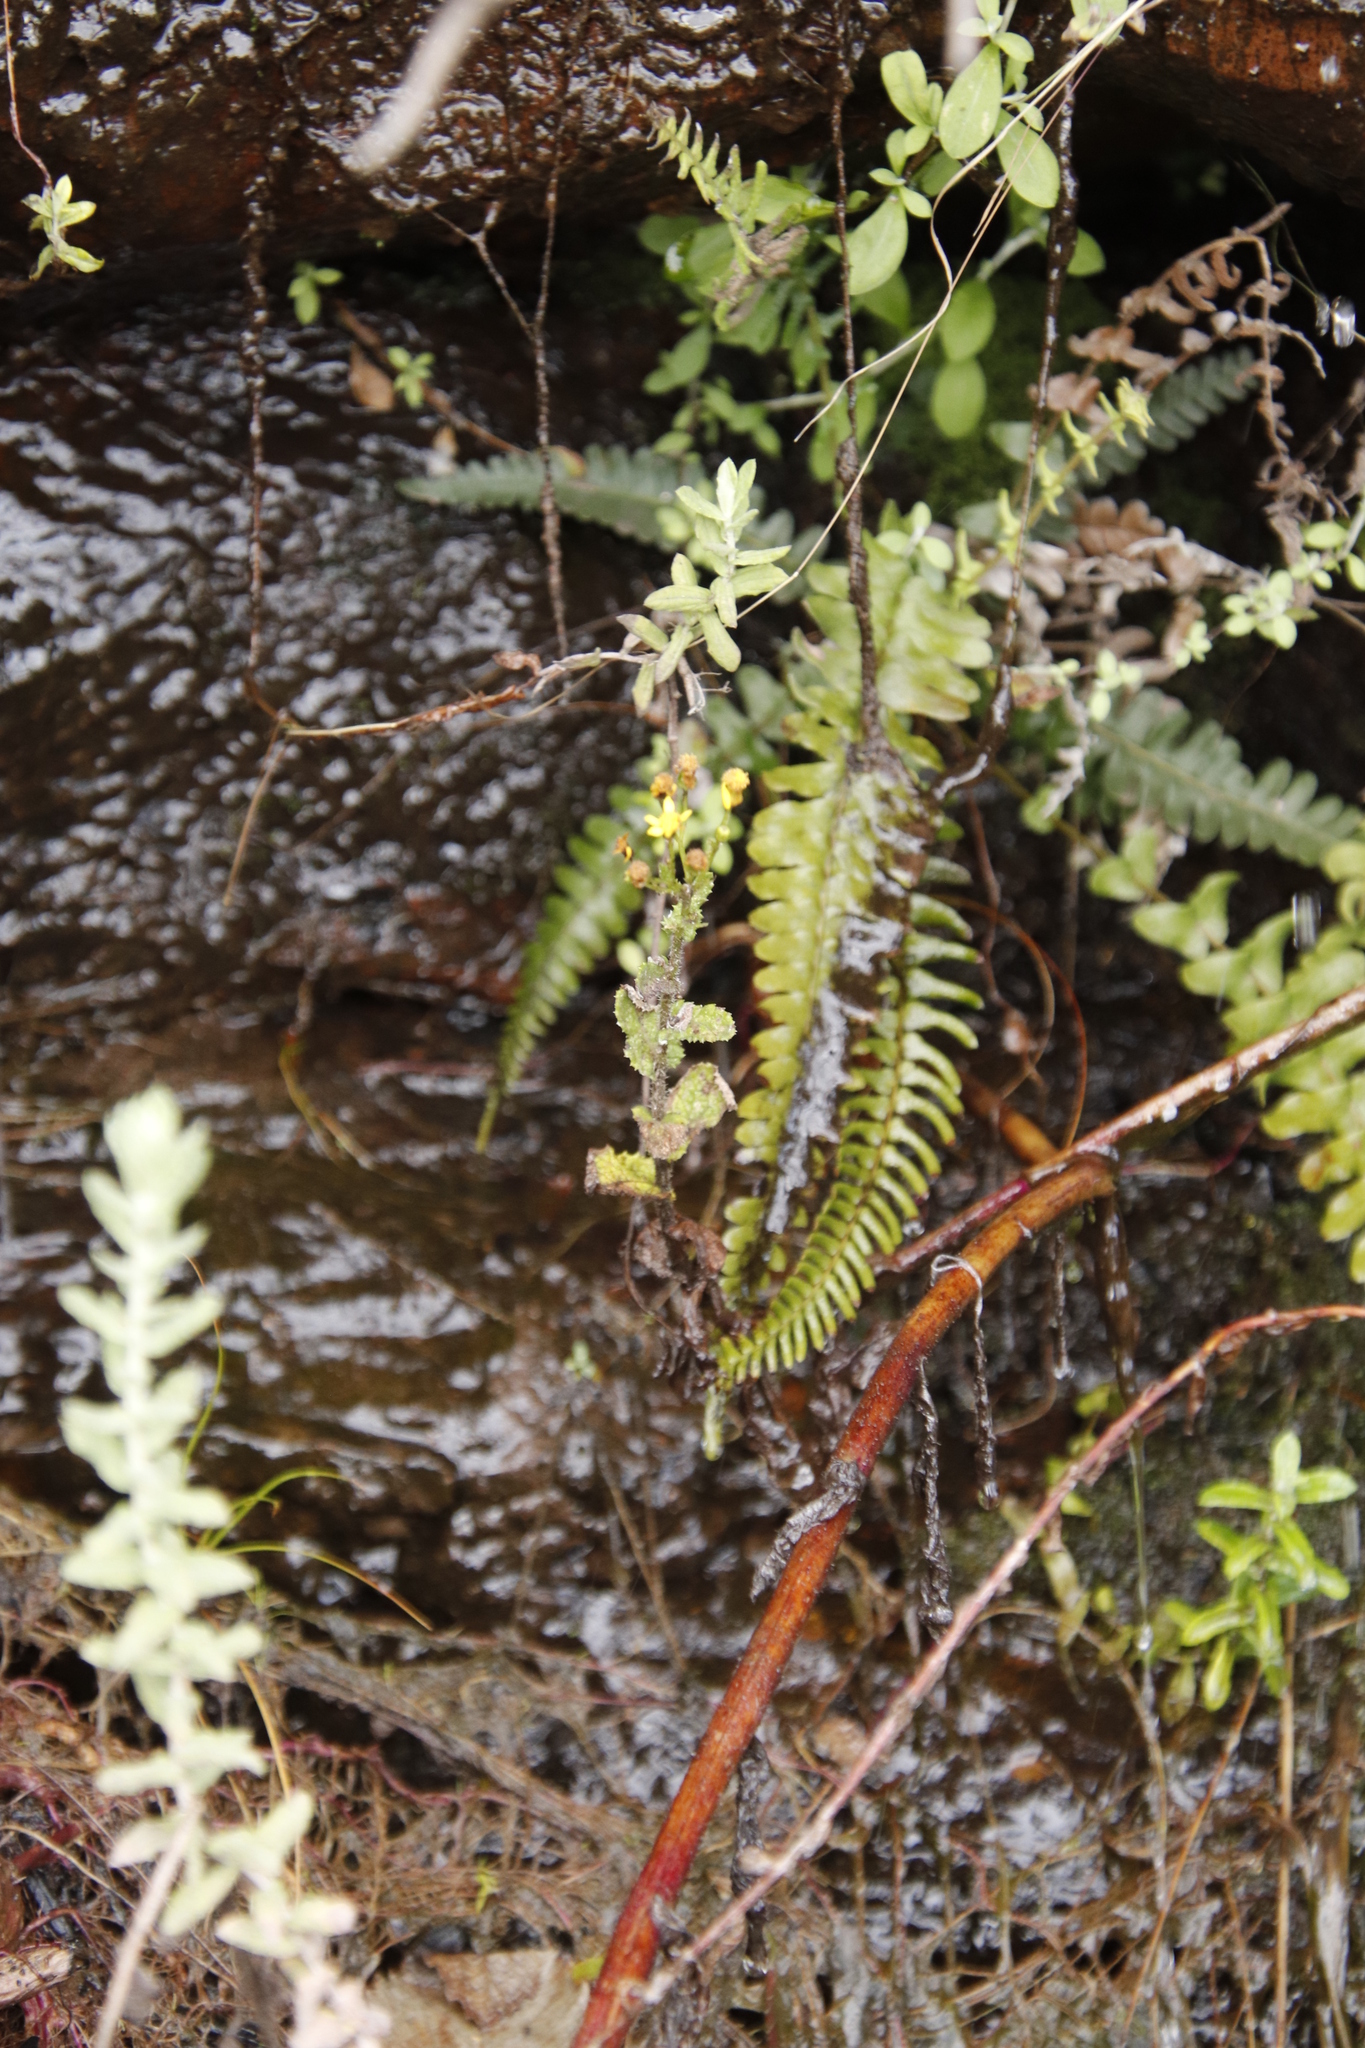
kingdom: Plantae
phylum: Tracheophyta
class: Polypodiopsida
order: Polypodiales
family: Blechnaceae
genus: Blechnum
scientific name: Blechnum australe
